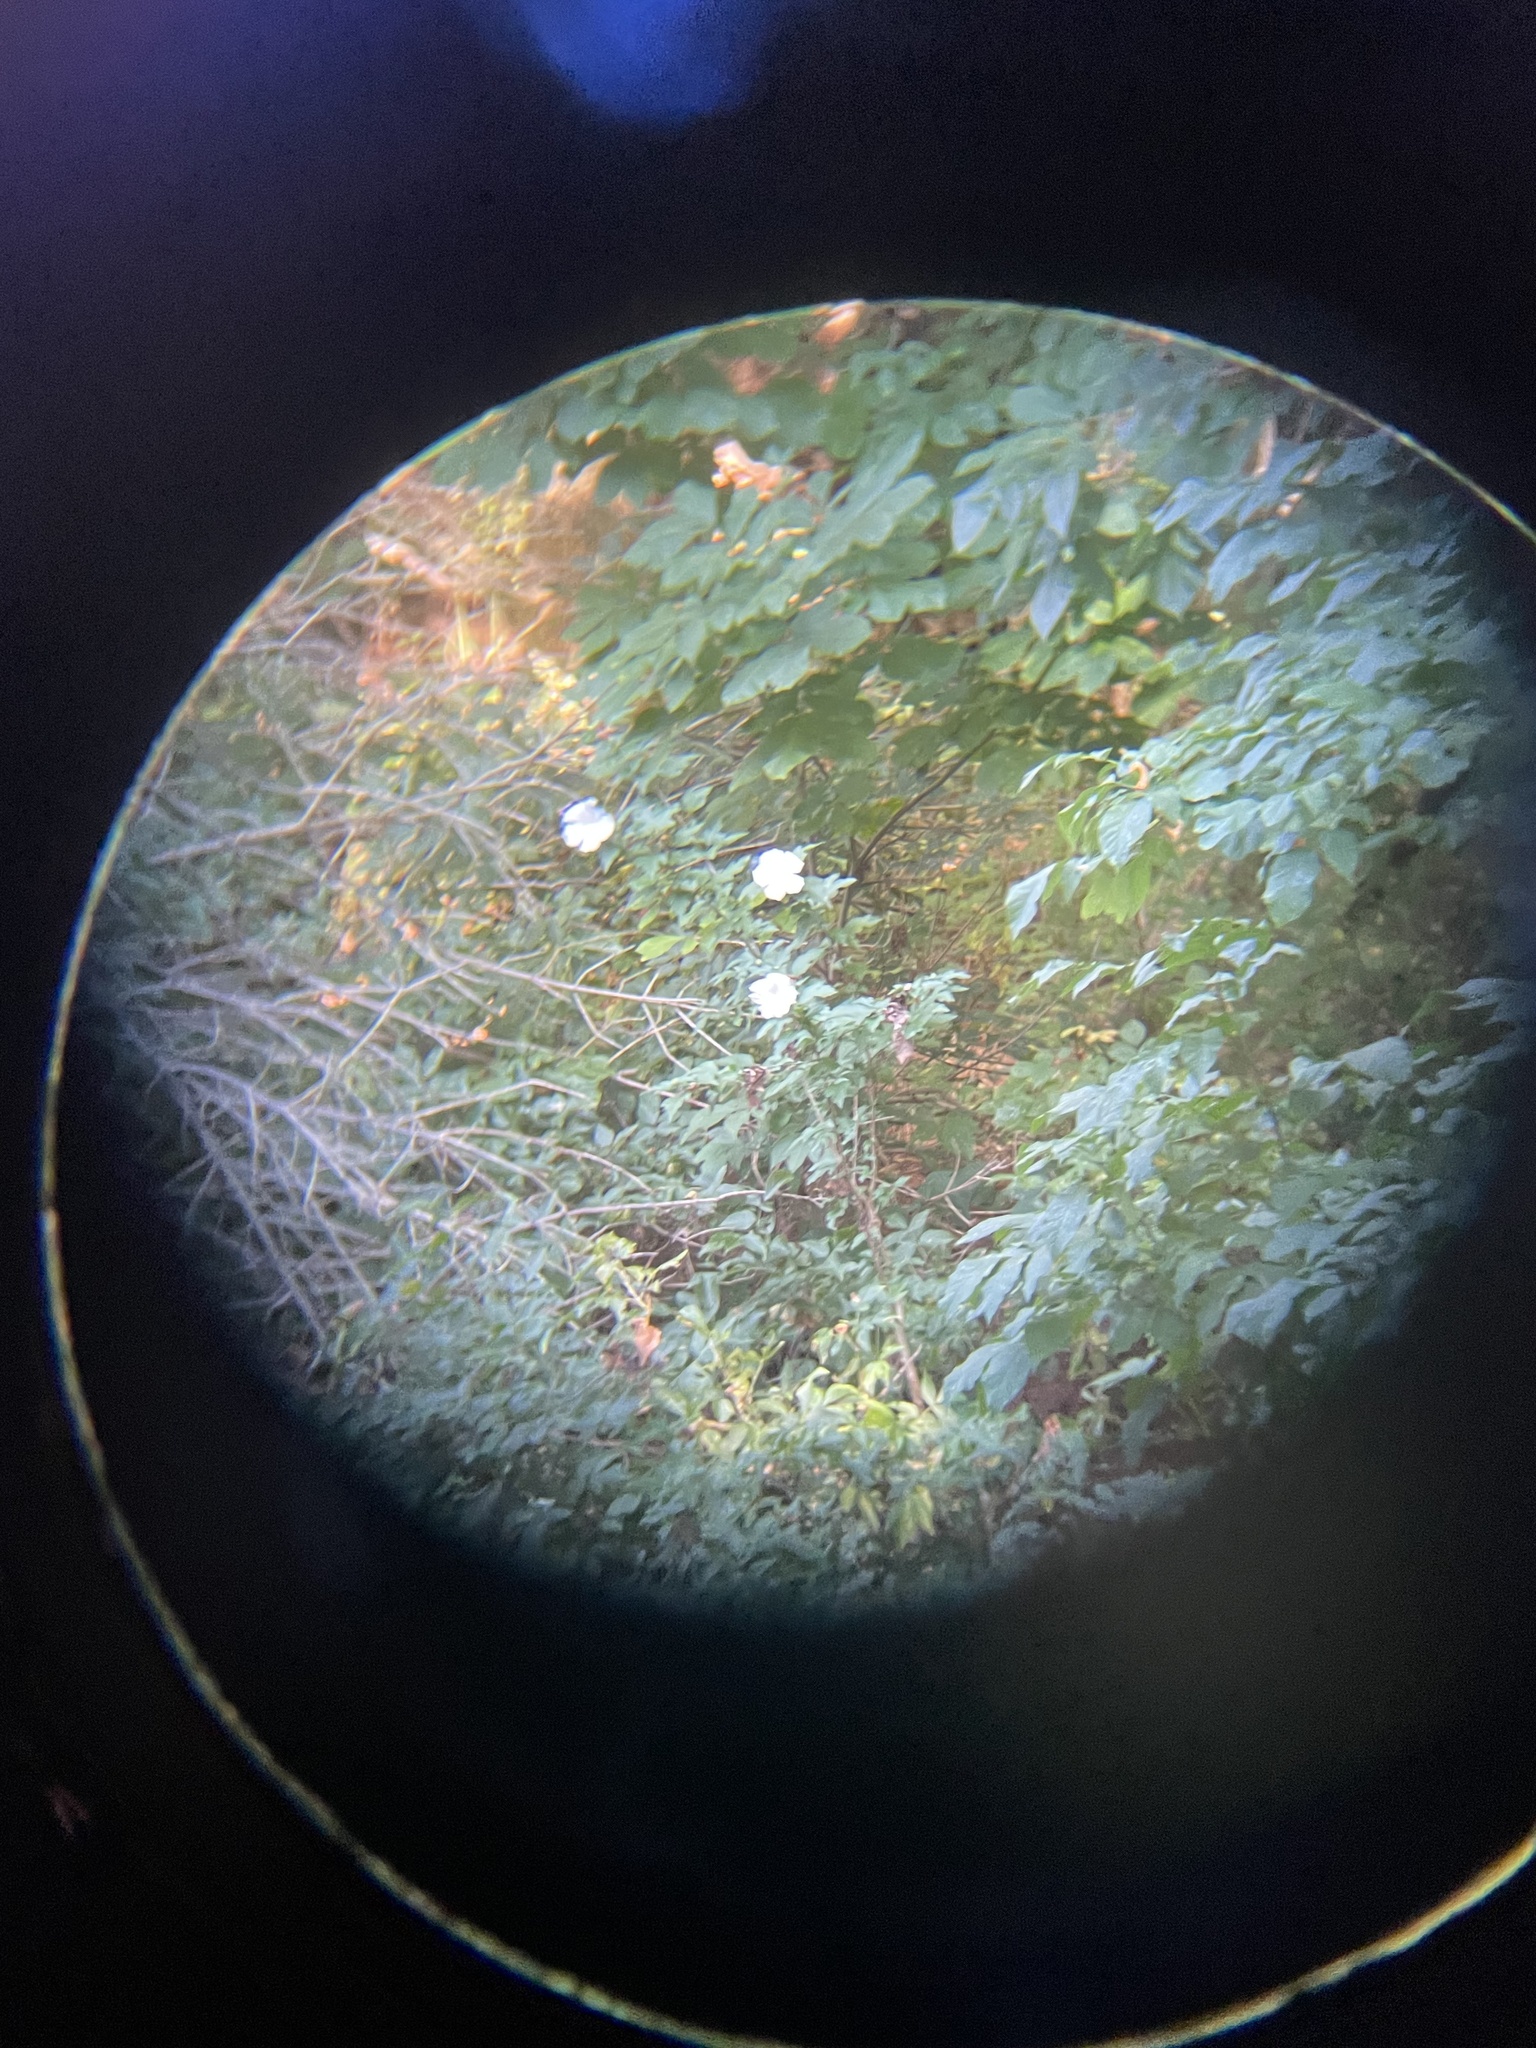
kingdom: Plantae
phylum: Tracheophyta
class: Magnoliopsida
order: Malvales
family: Malvaceae
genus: Hibiscus
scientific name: Hibiscus syriacus
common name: Syrian ketmia
